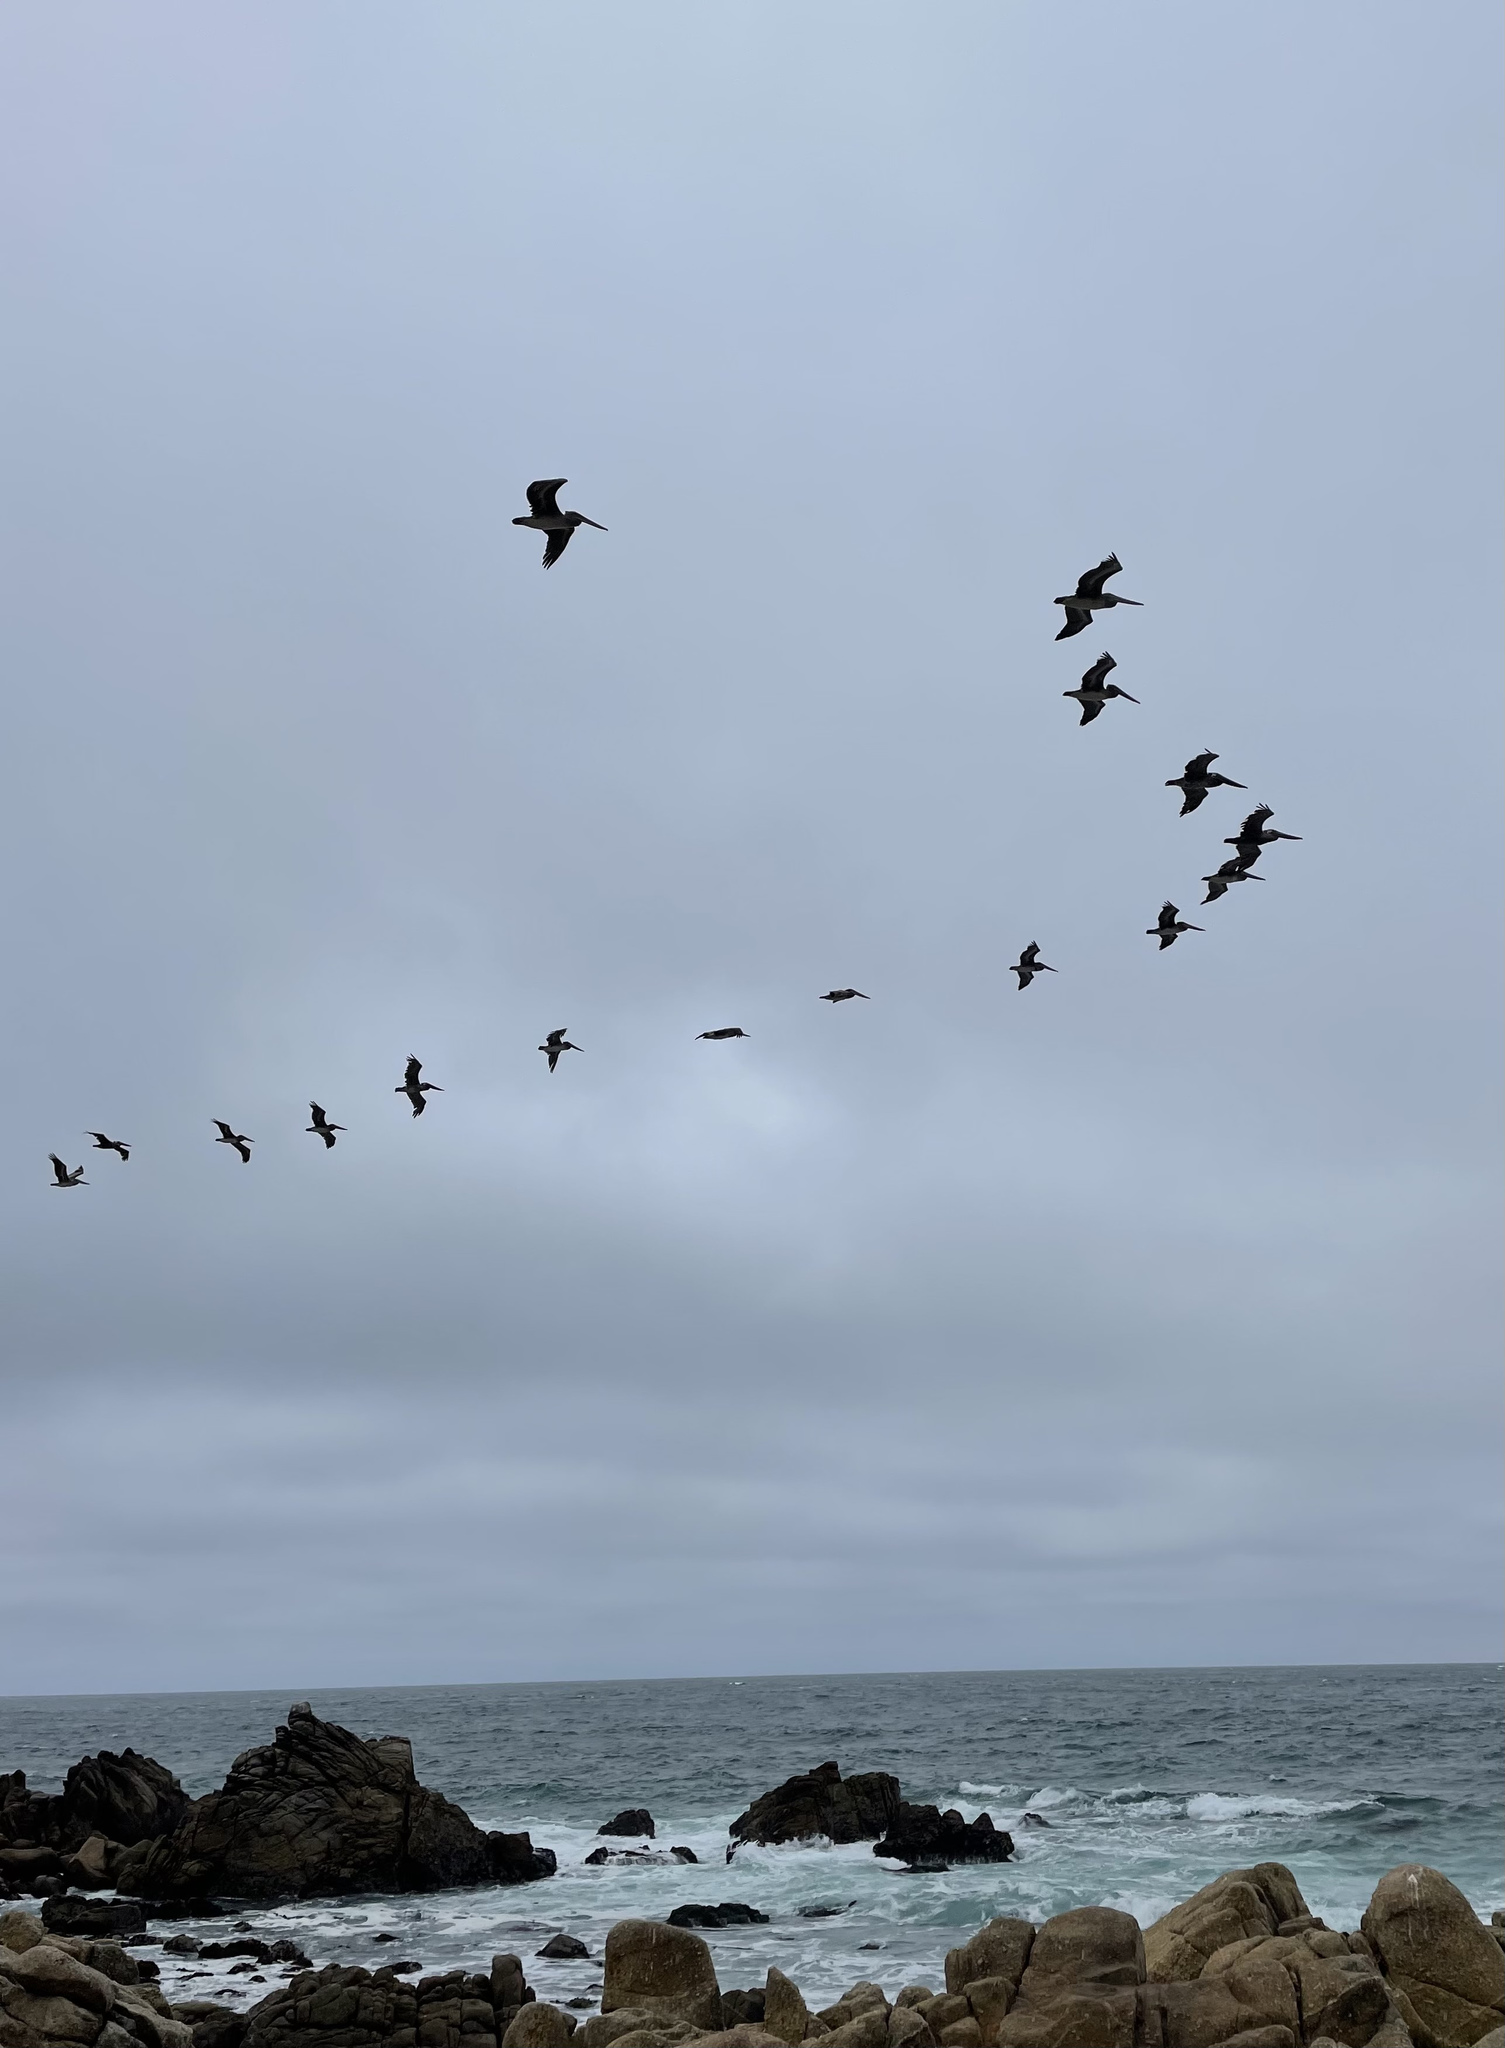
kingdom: Animalia
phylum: Chordata
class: Aves
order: Pelecaniformes
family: Pelecanidae
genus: Pelecanus
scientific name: Pelecanus occidentalis
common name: Brown pelican
